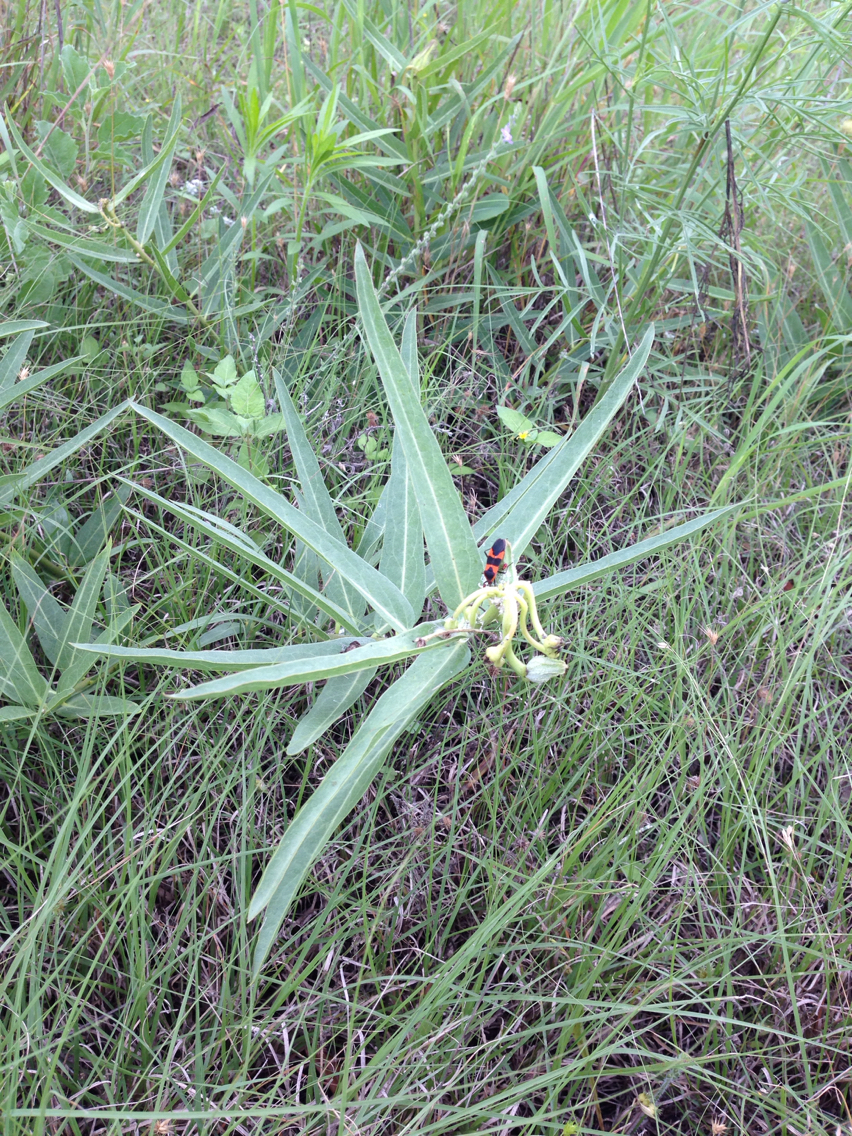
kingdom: Plantae
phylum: Tracheophyta
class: Magnoliopsida
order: Gentianales
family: Apocynaceae
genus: Asclepias
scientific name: Asclepias asperula
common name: Antelope horns
